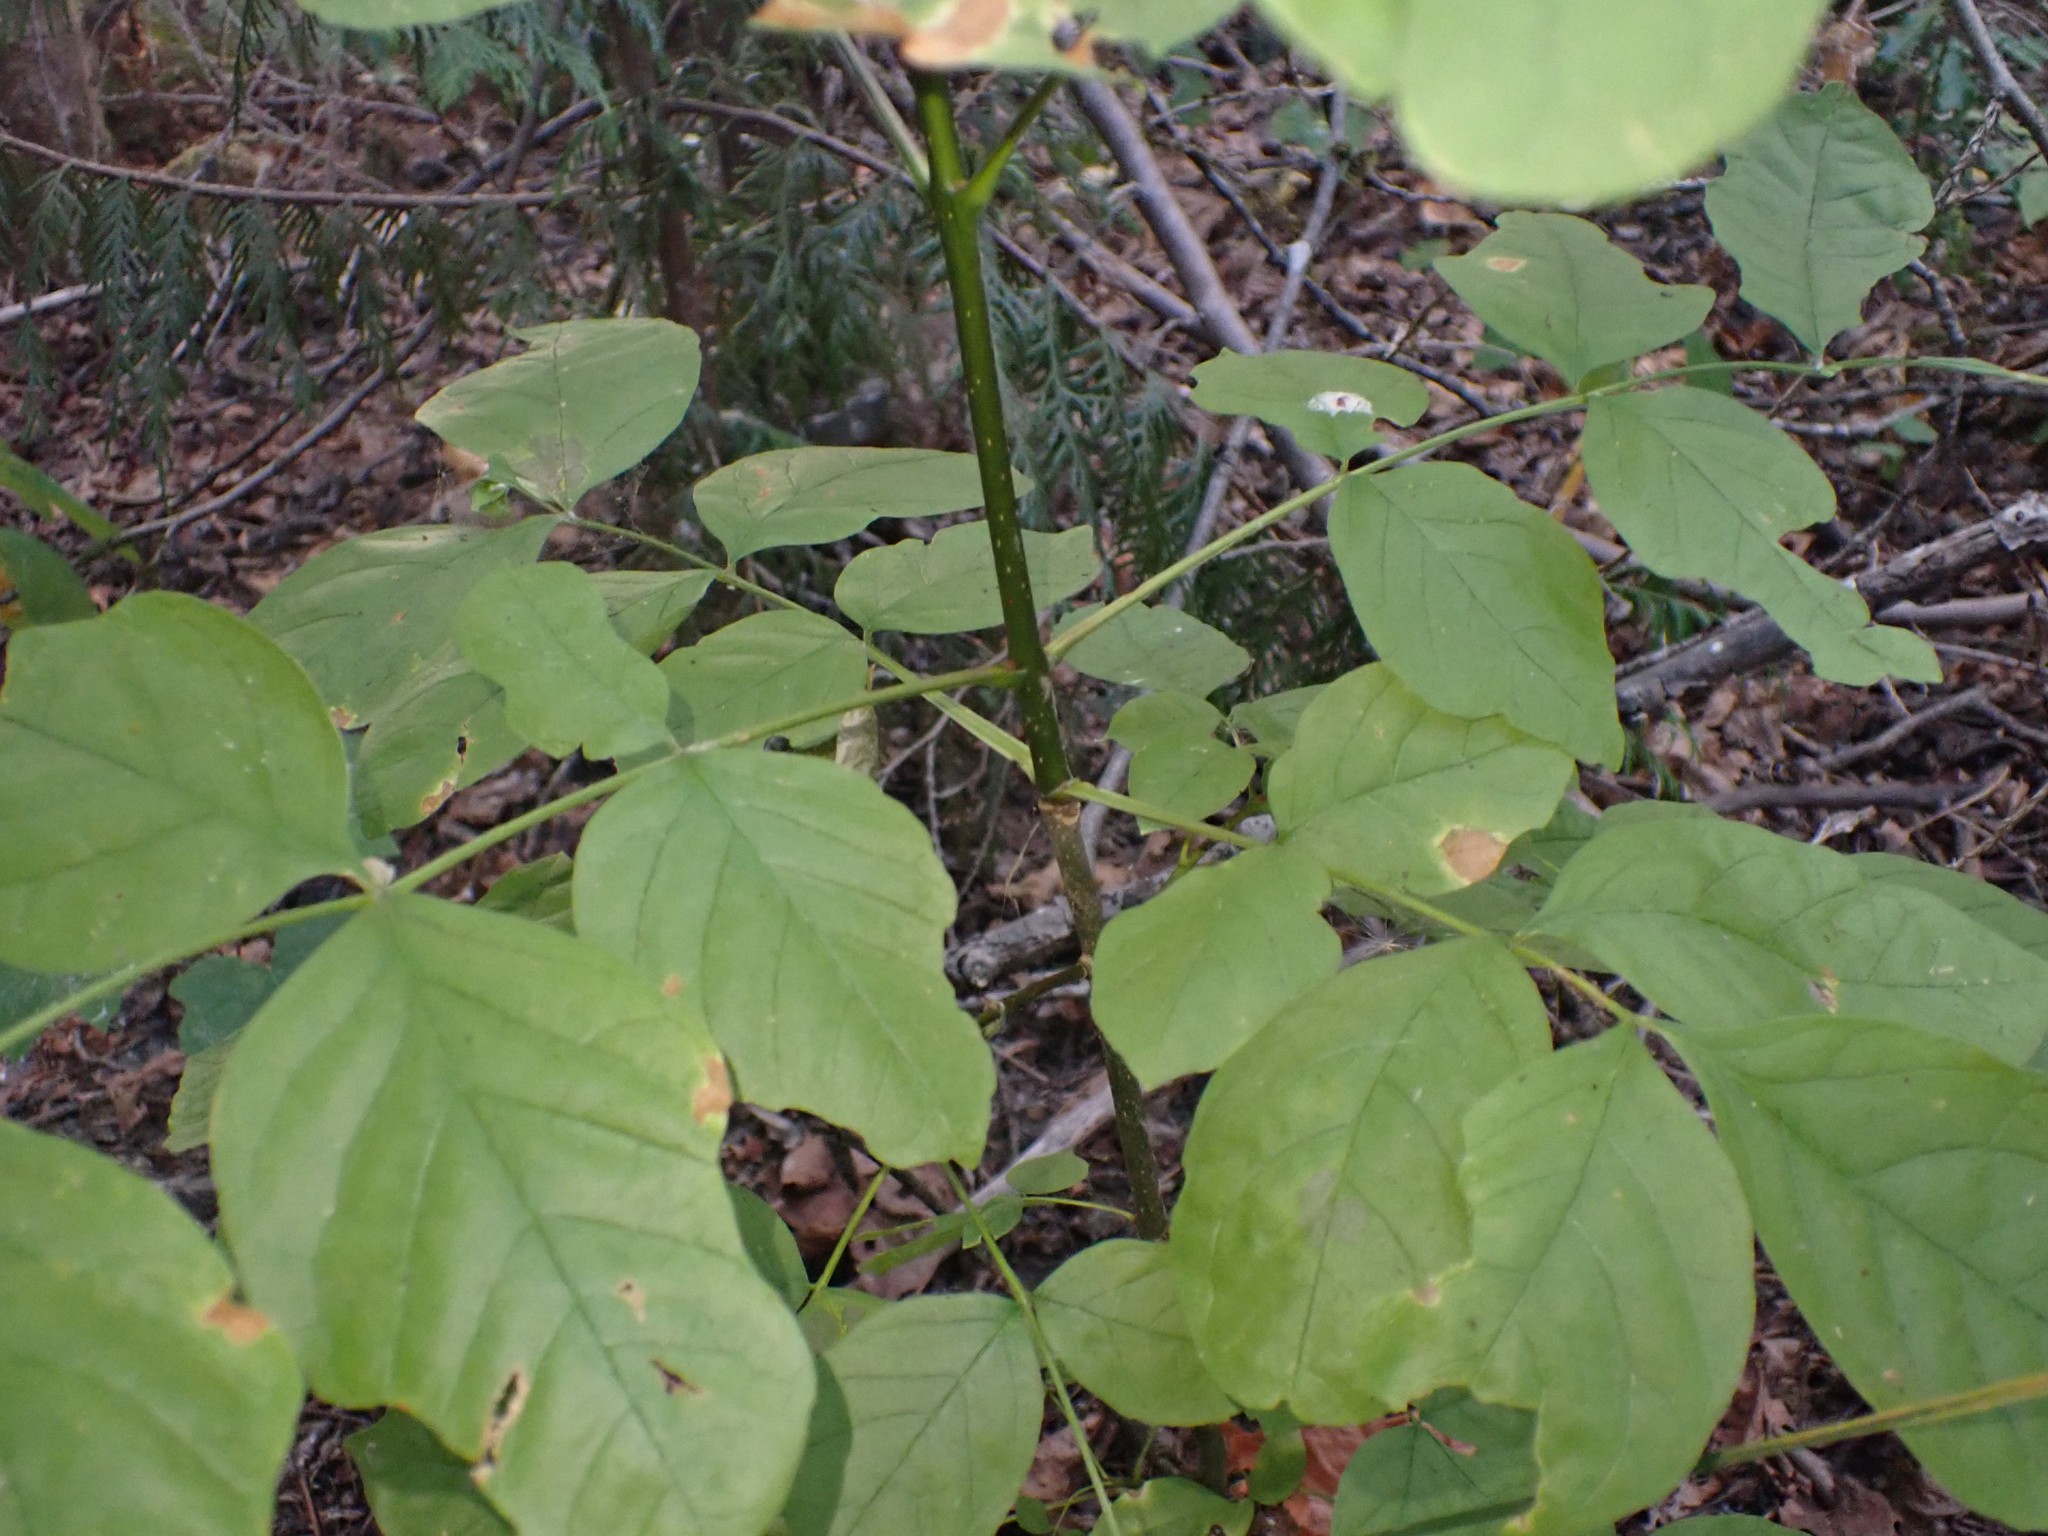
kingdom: Plantae
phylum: Tracheophyta
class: Magnoliopsida
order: Lamiales
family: Oleaceae
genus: Fraxinus
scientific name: Fraxinus latifolia
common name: Oregon ash
